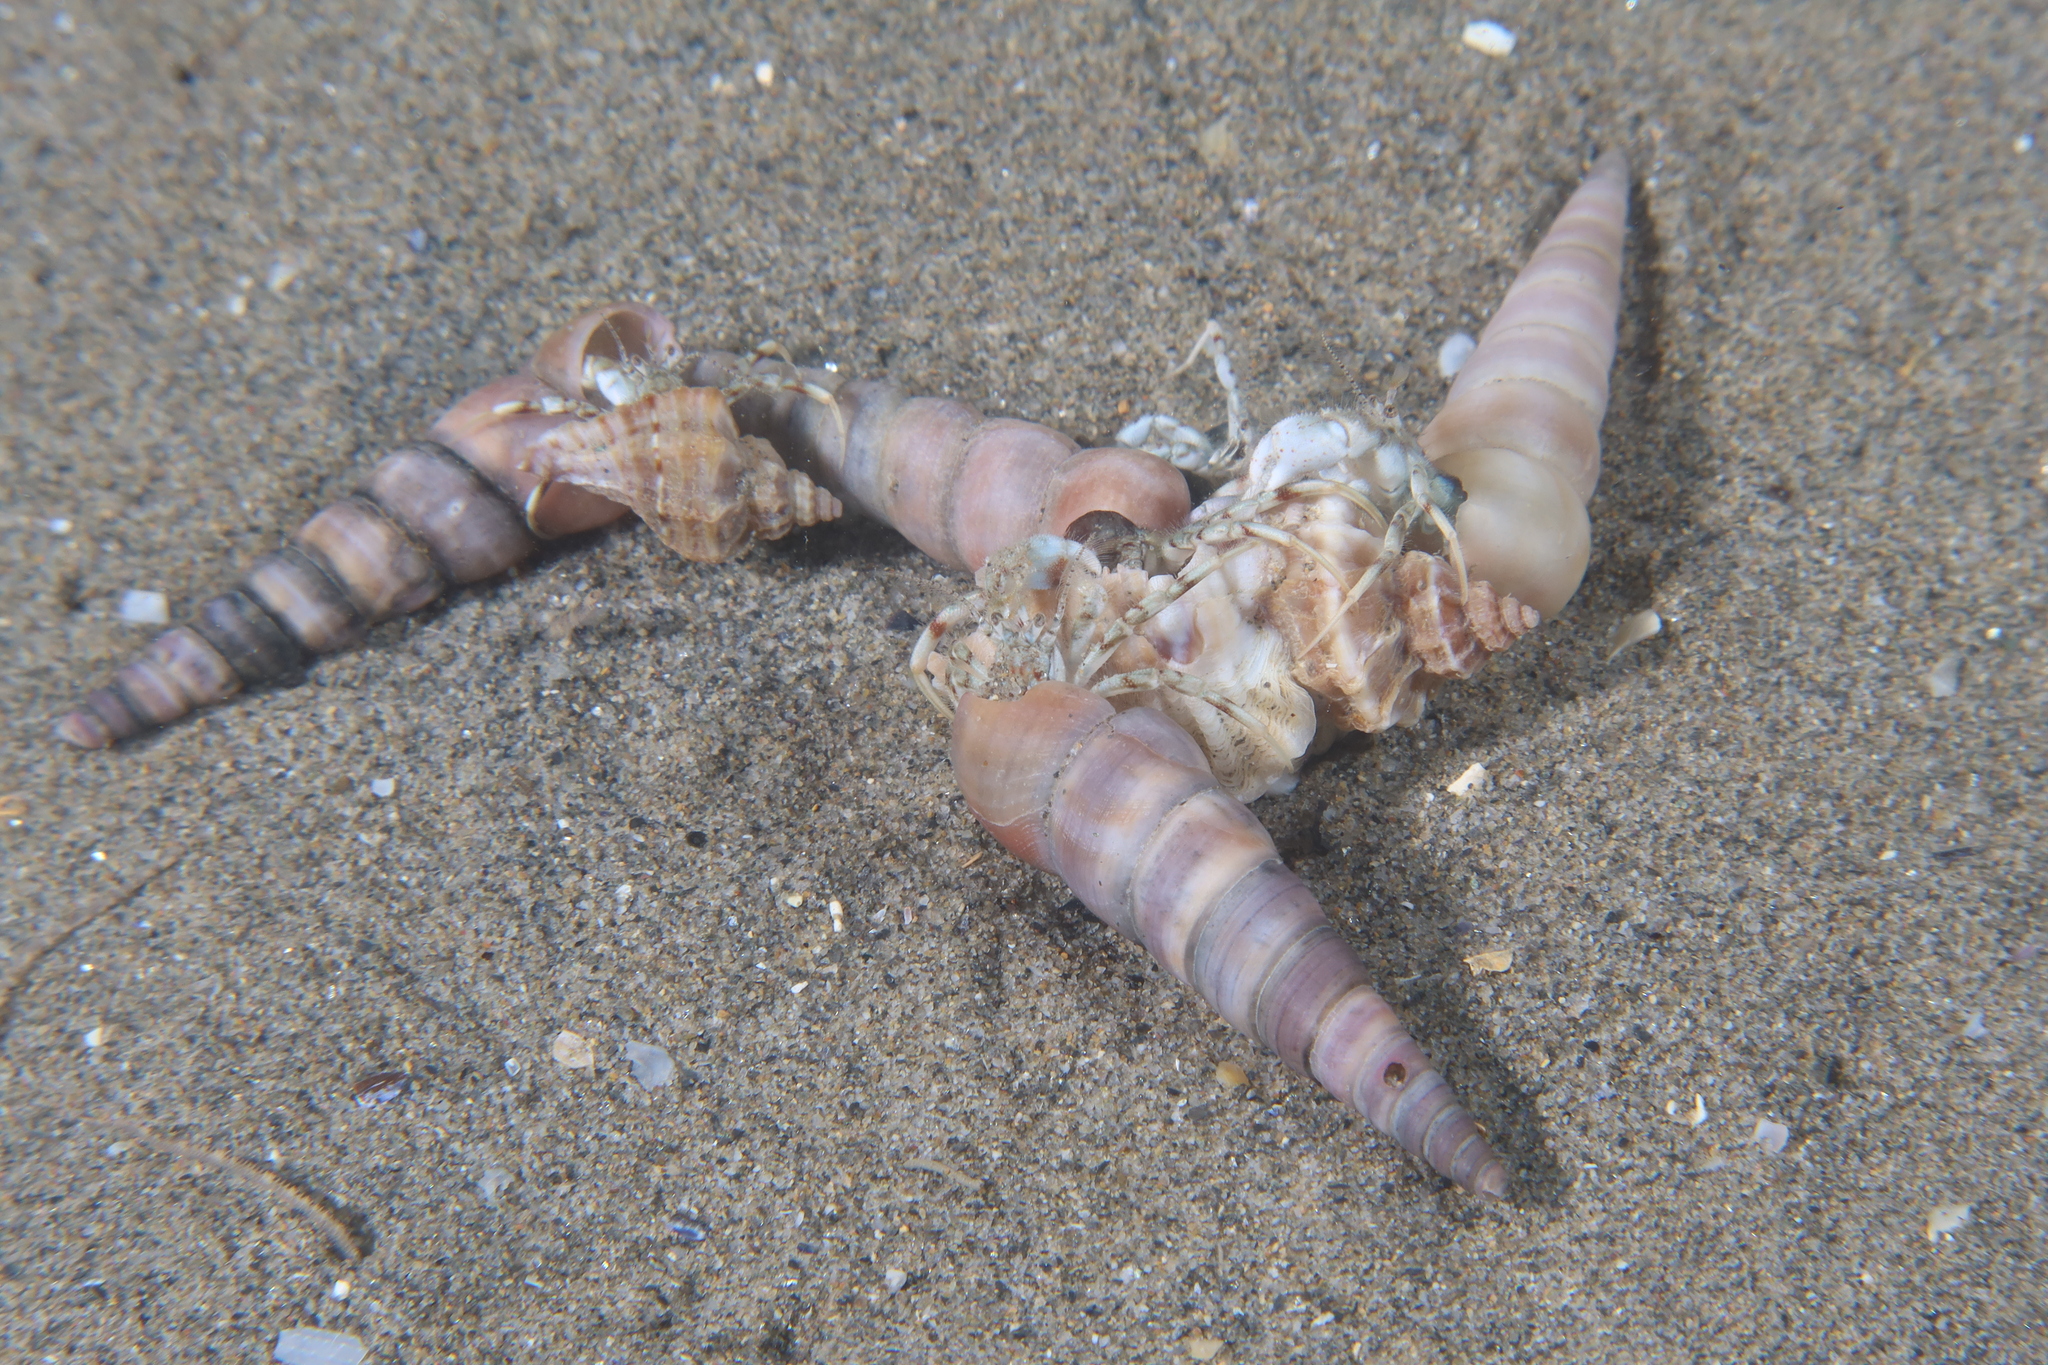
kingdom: Animalia
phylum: Arthropoda
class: Malacostraca
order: Decapoda
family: Diogenidae
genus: Diogenes
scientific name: Diogenes pugilator
